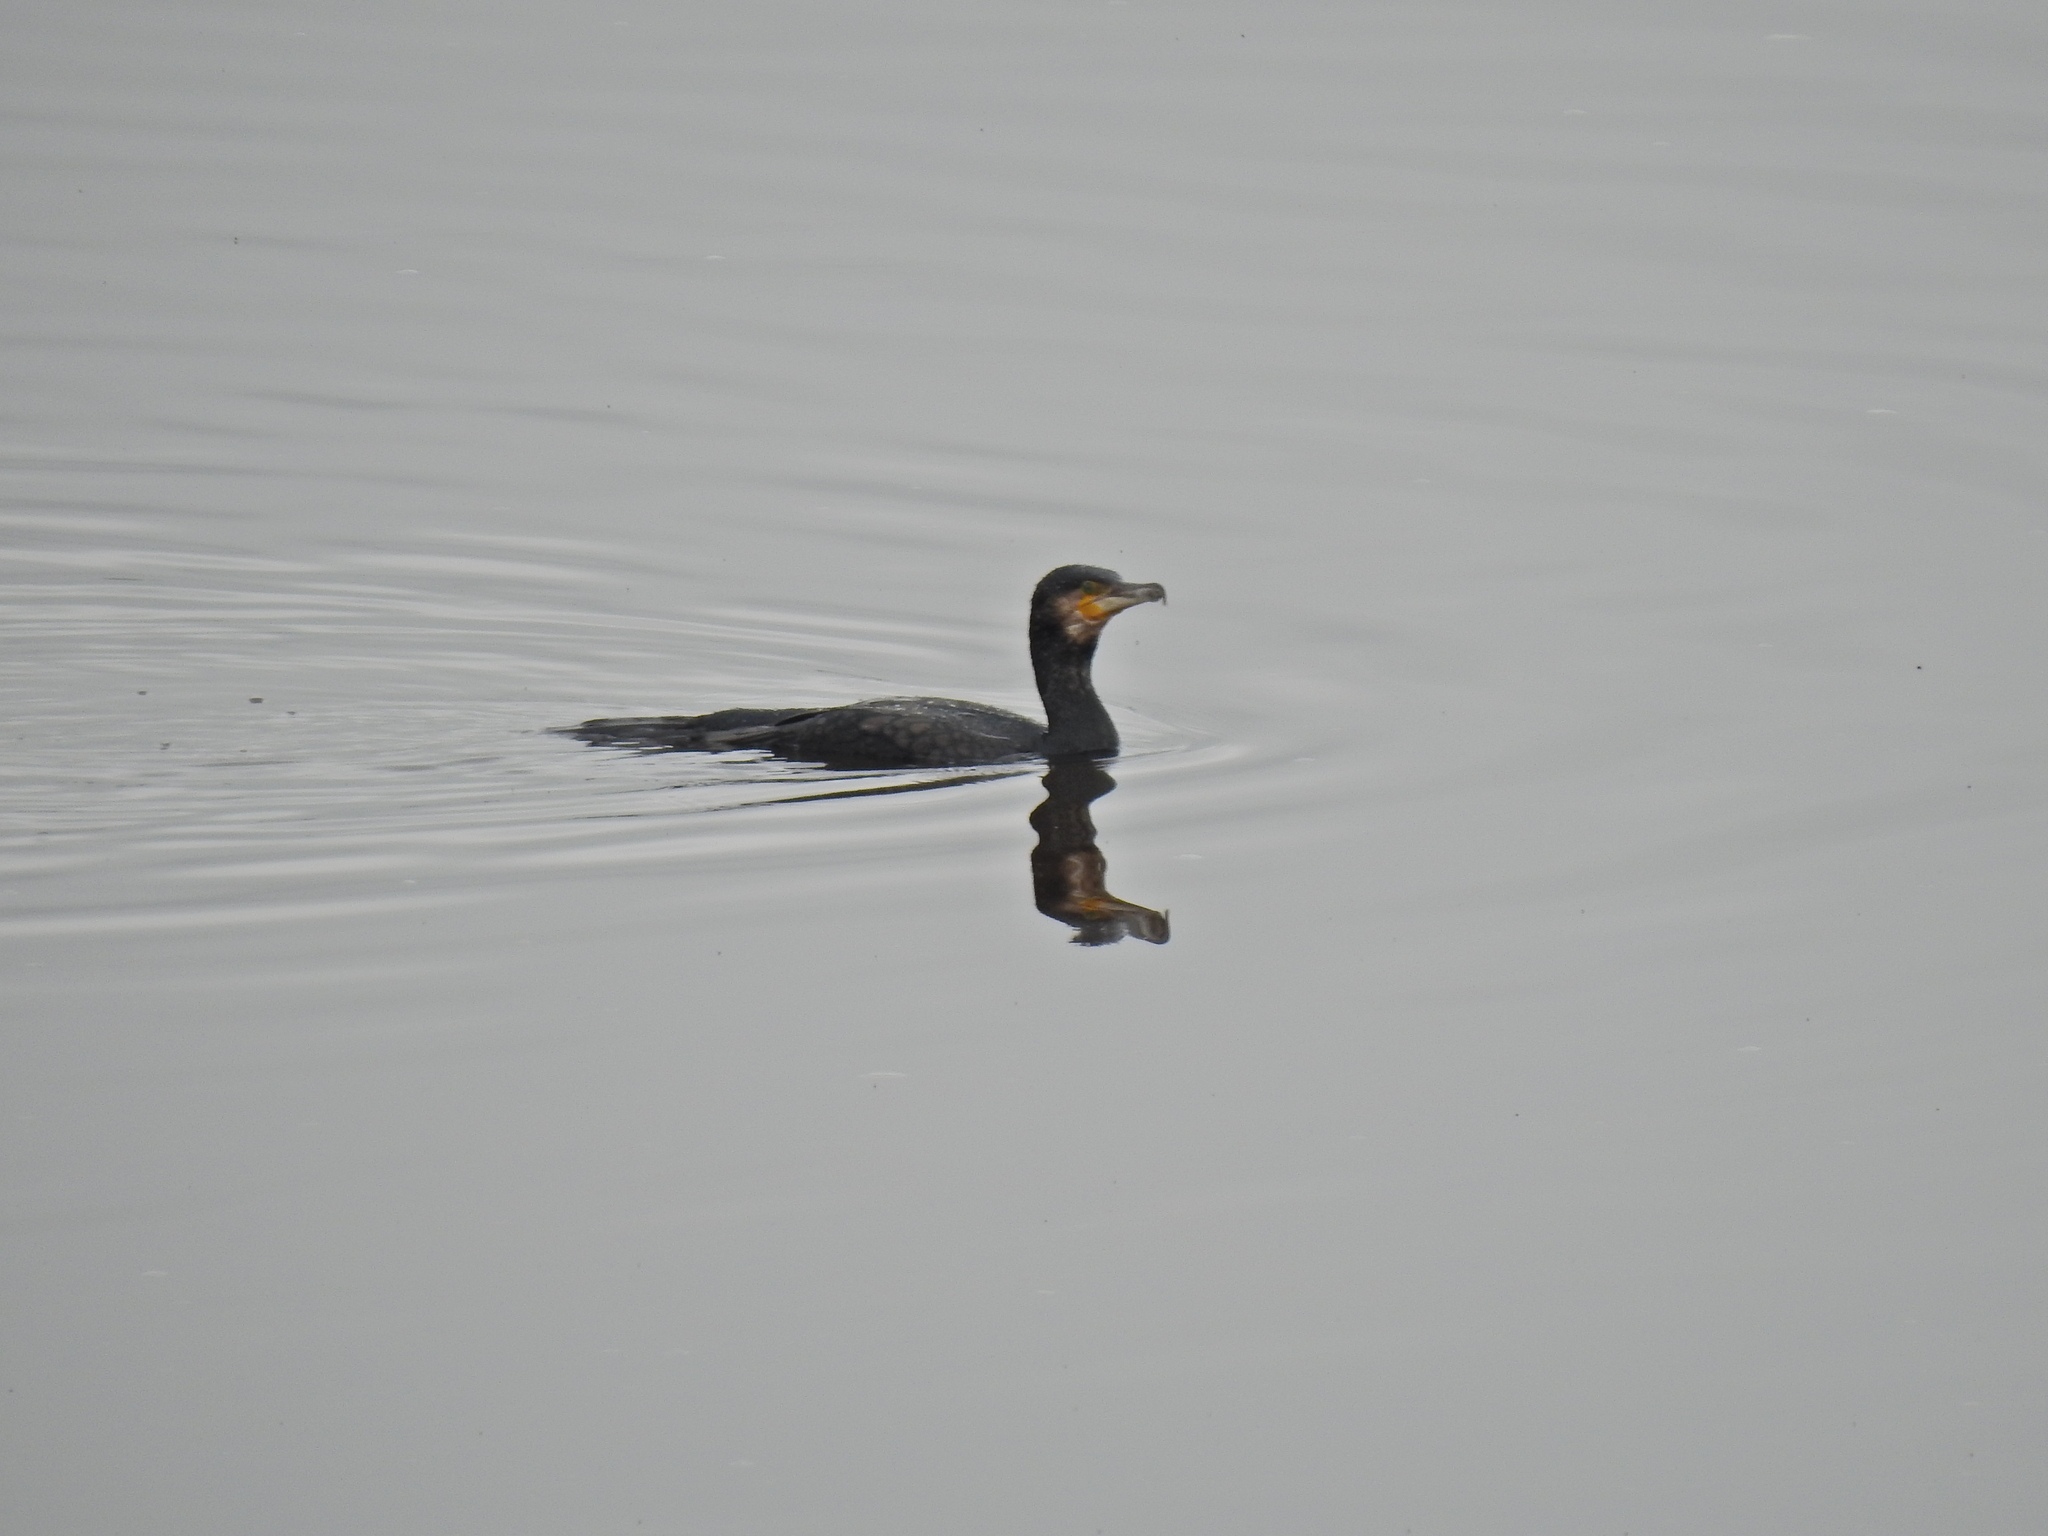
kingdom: Animalia
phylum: Chordata
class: Aves
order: Suliformes
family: Phalacrocoracidae
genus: Phalacrocorax
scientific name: Phalacrocorax carbo
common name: Great cormorant
